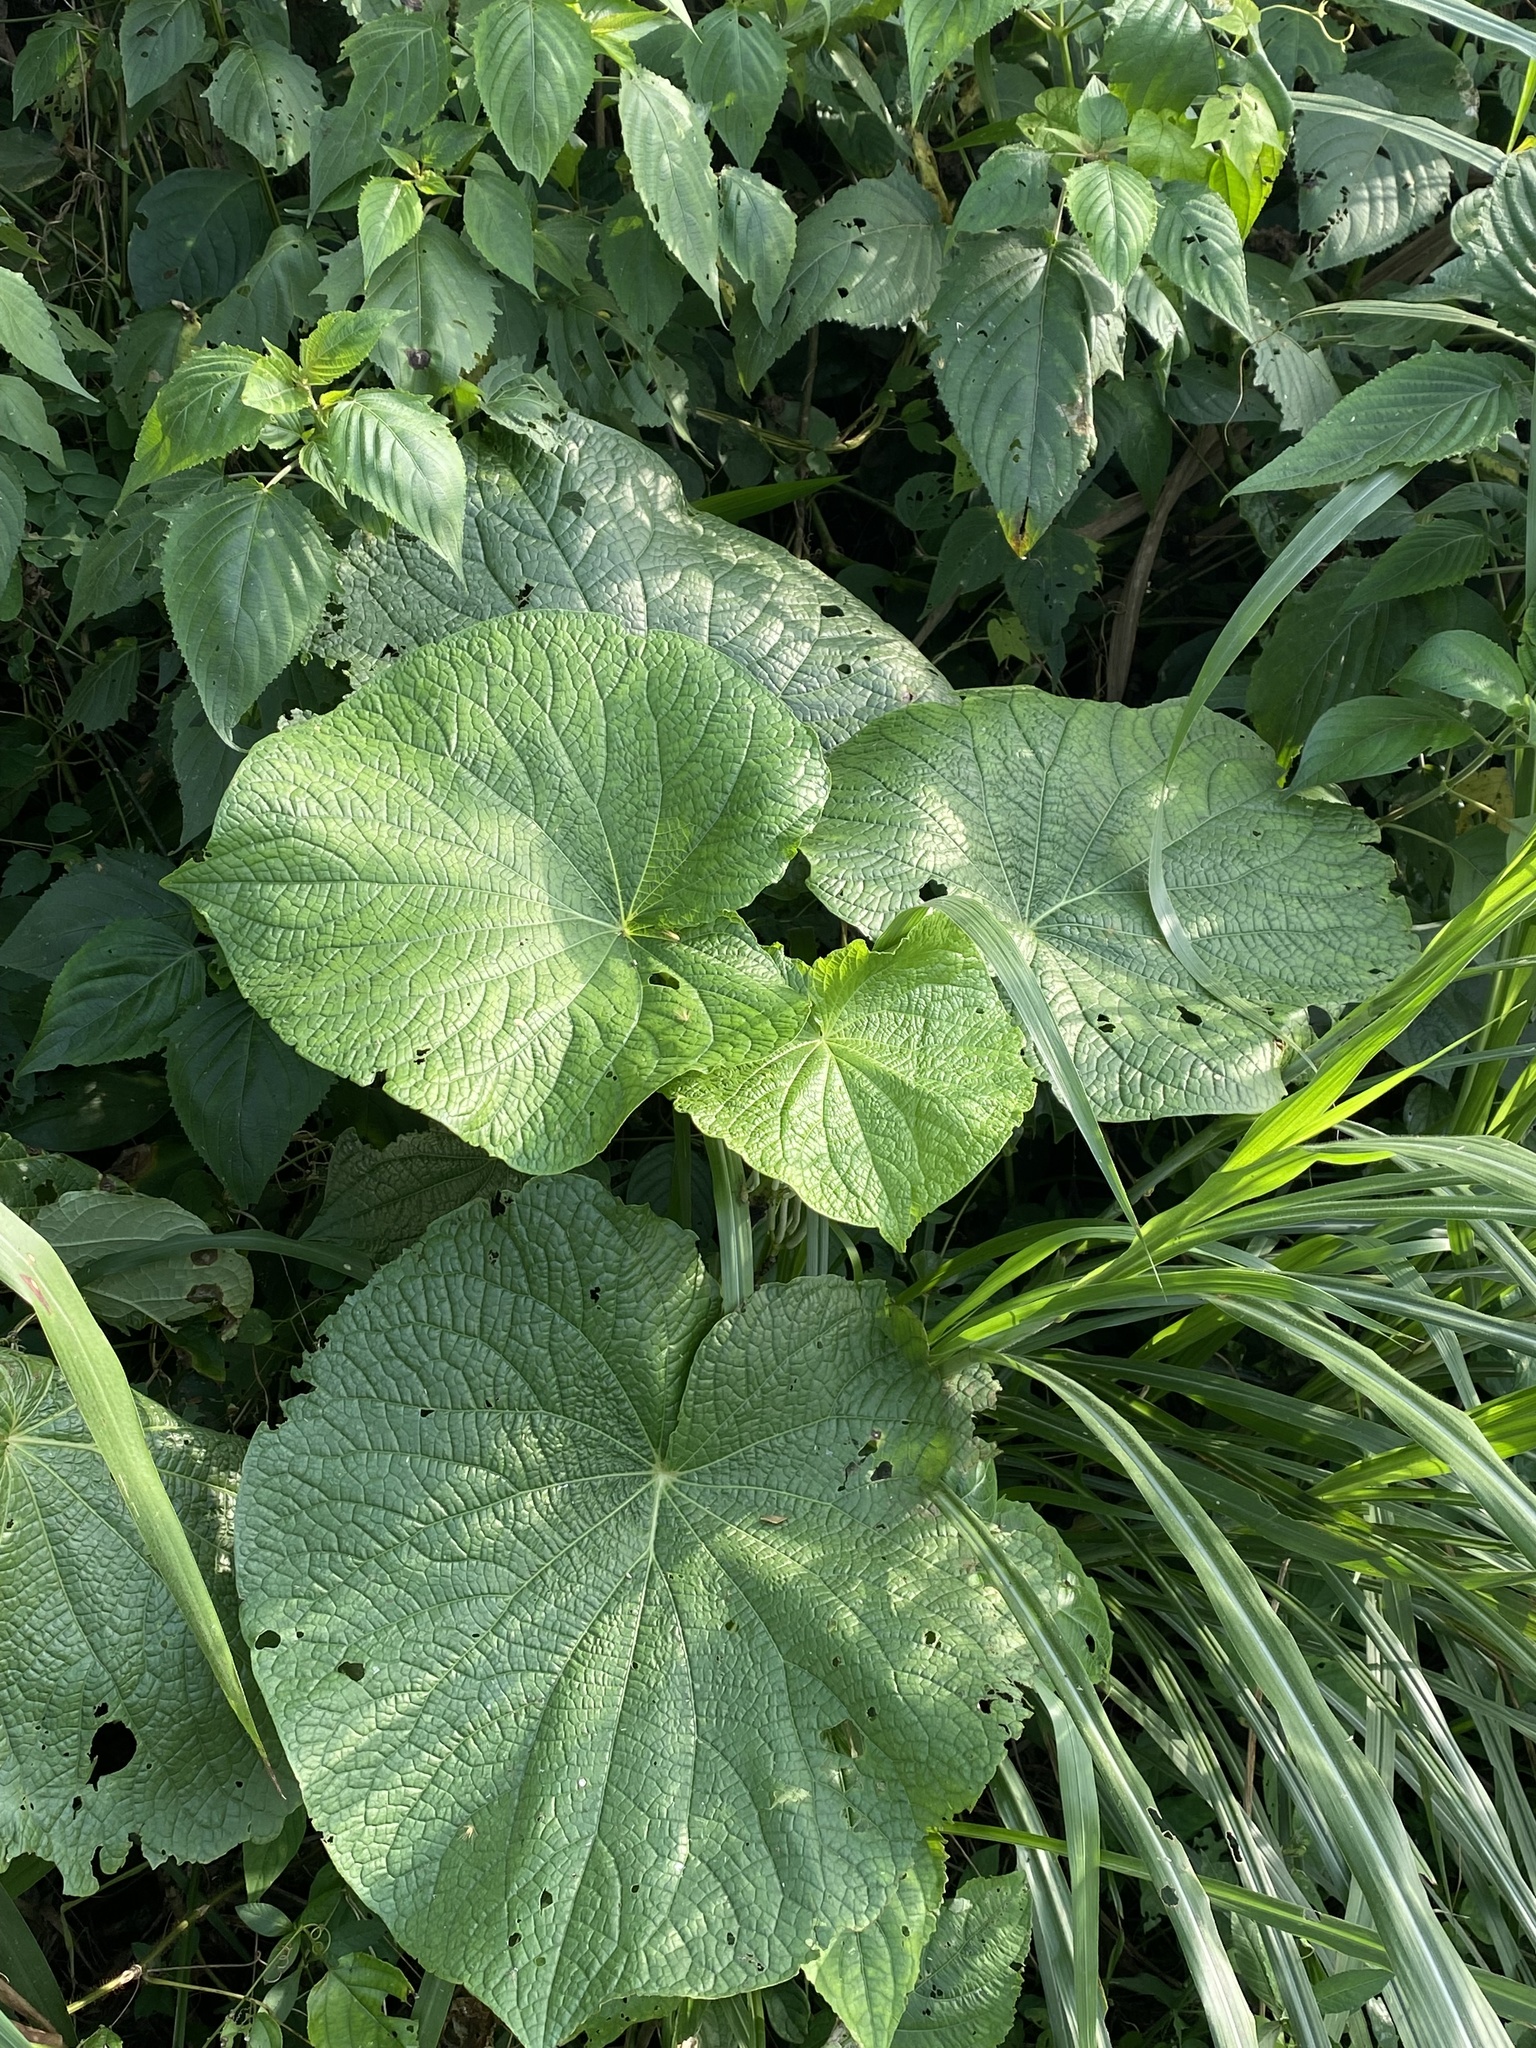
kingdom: Plantae
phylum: Tracheophyta
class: Magnoliopsida
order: Piperales
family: Piperaceae
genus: Piper
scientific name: Piper umbellatum
